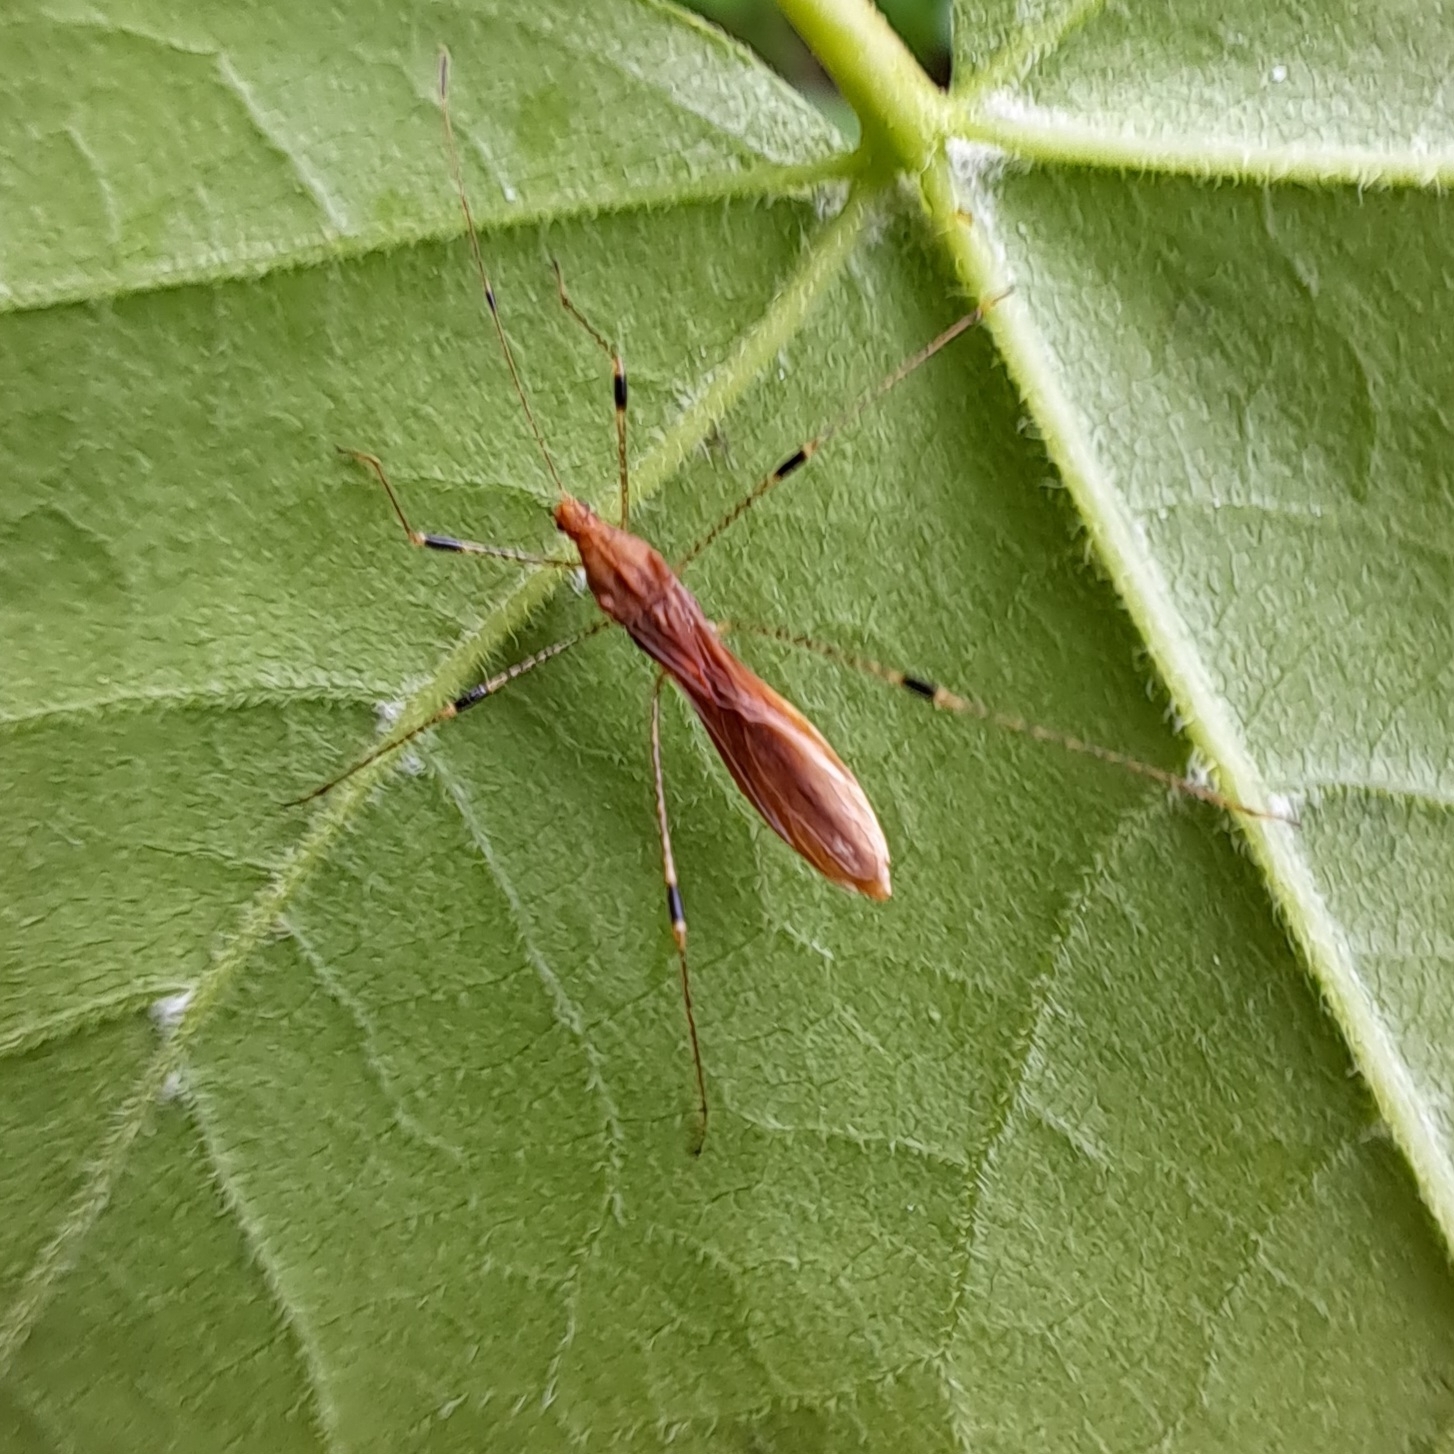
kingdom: Animalia
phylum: Arthropoda
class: Insecta
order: Hemiptera
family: Berytidae
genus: Metatropis
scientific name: Metatropis rufescens
